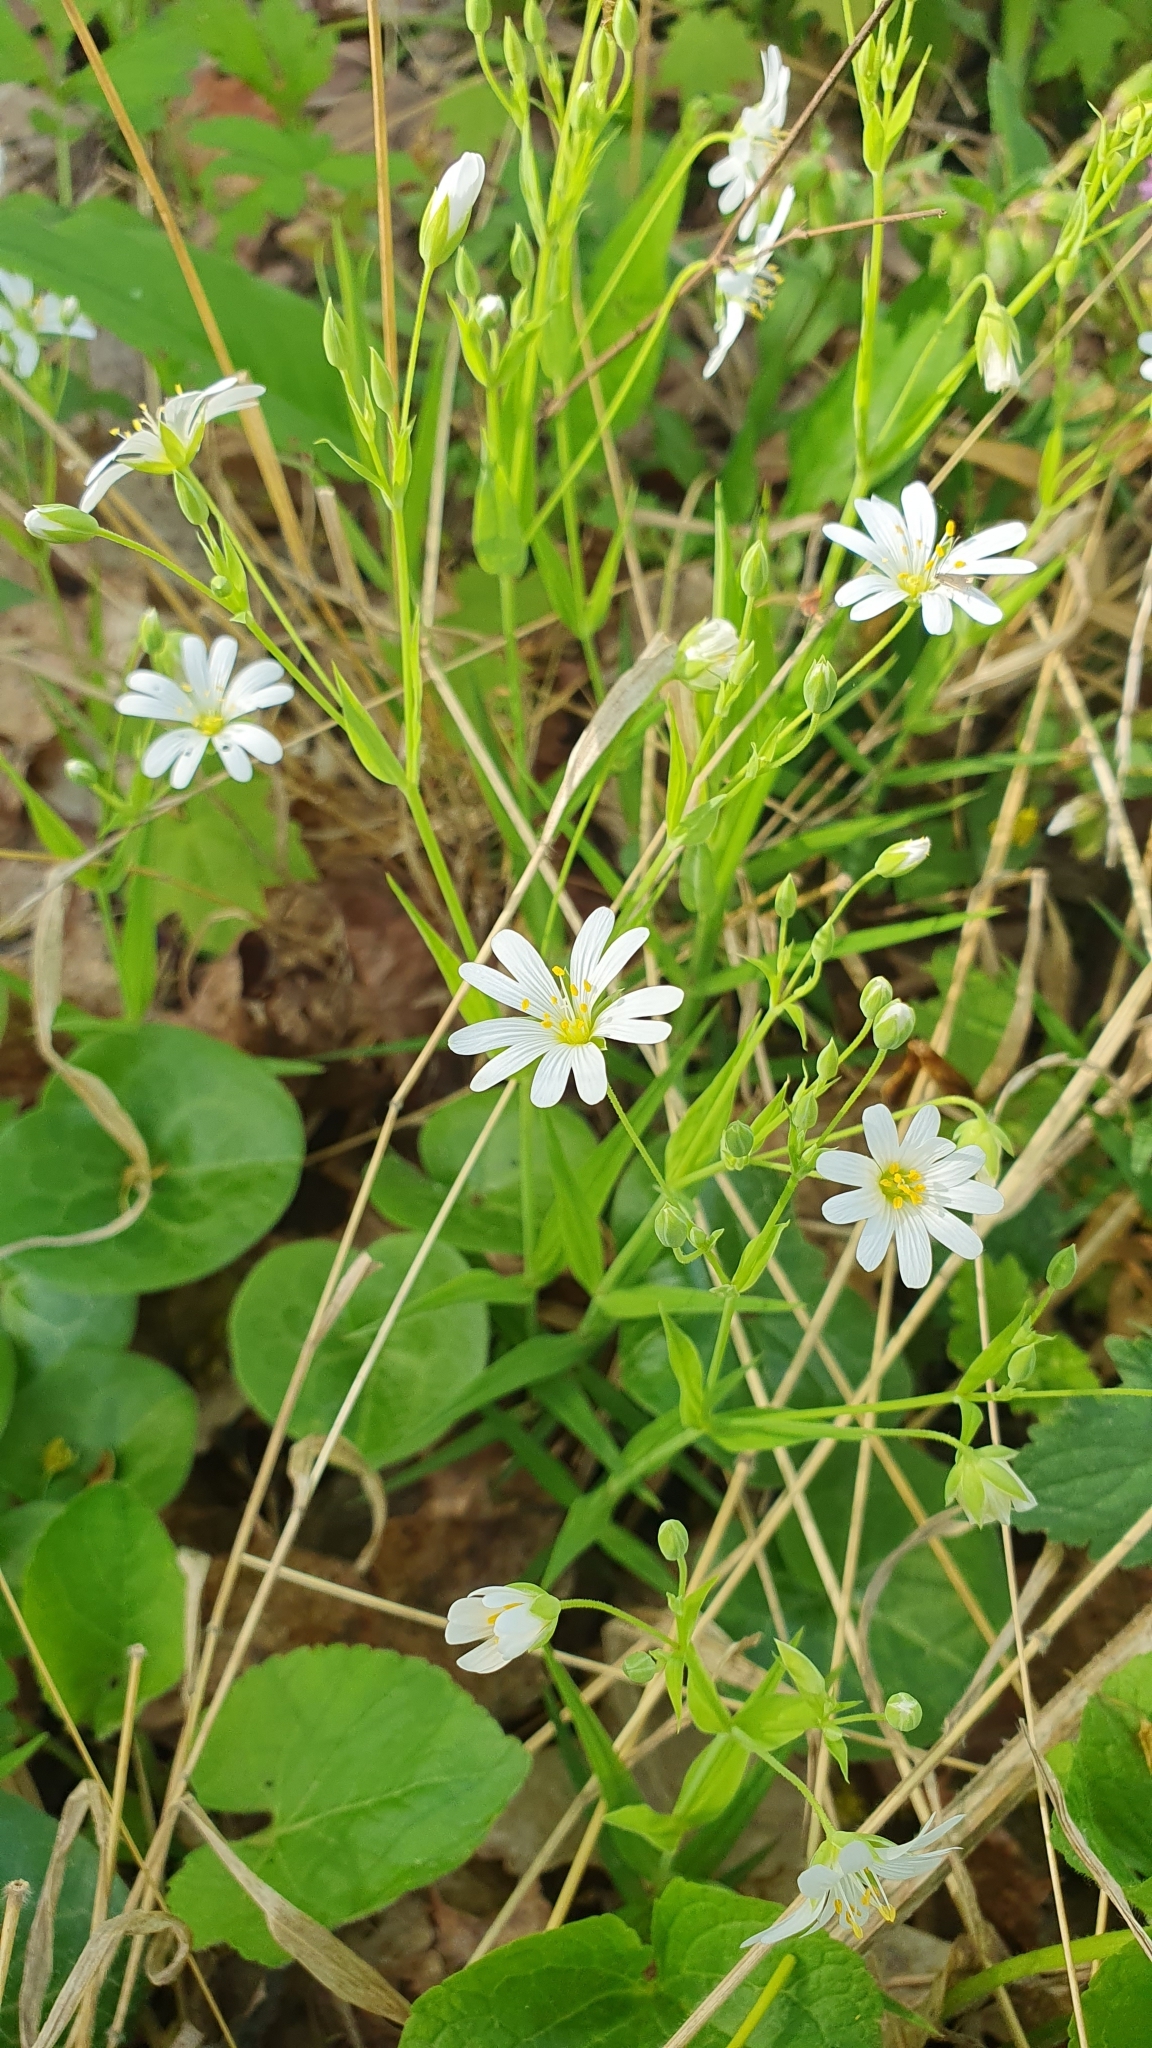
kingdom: Plantae
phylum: Tracheophyta
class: Magnoliopsida
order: Caryophyllales
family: Caryophyllaceae
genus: Rabelera
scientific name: Rabelera holostea
